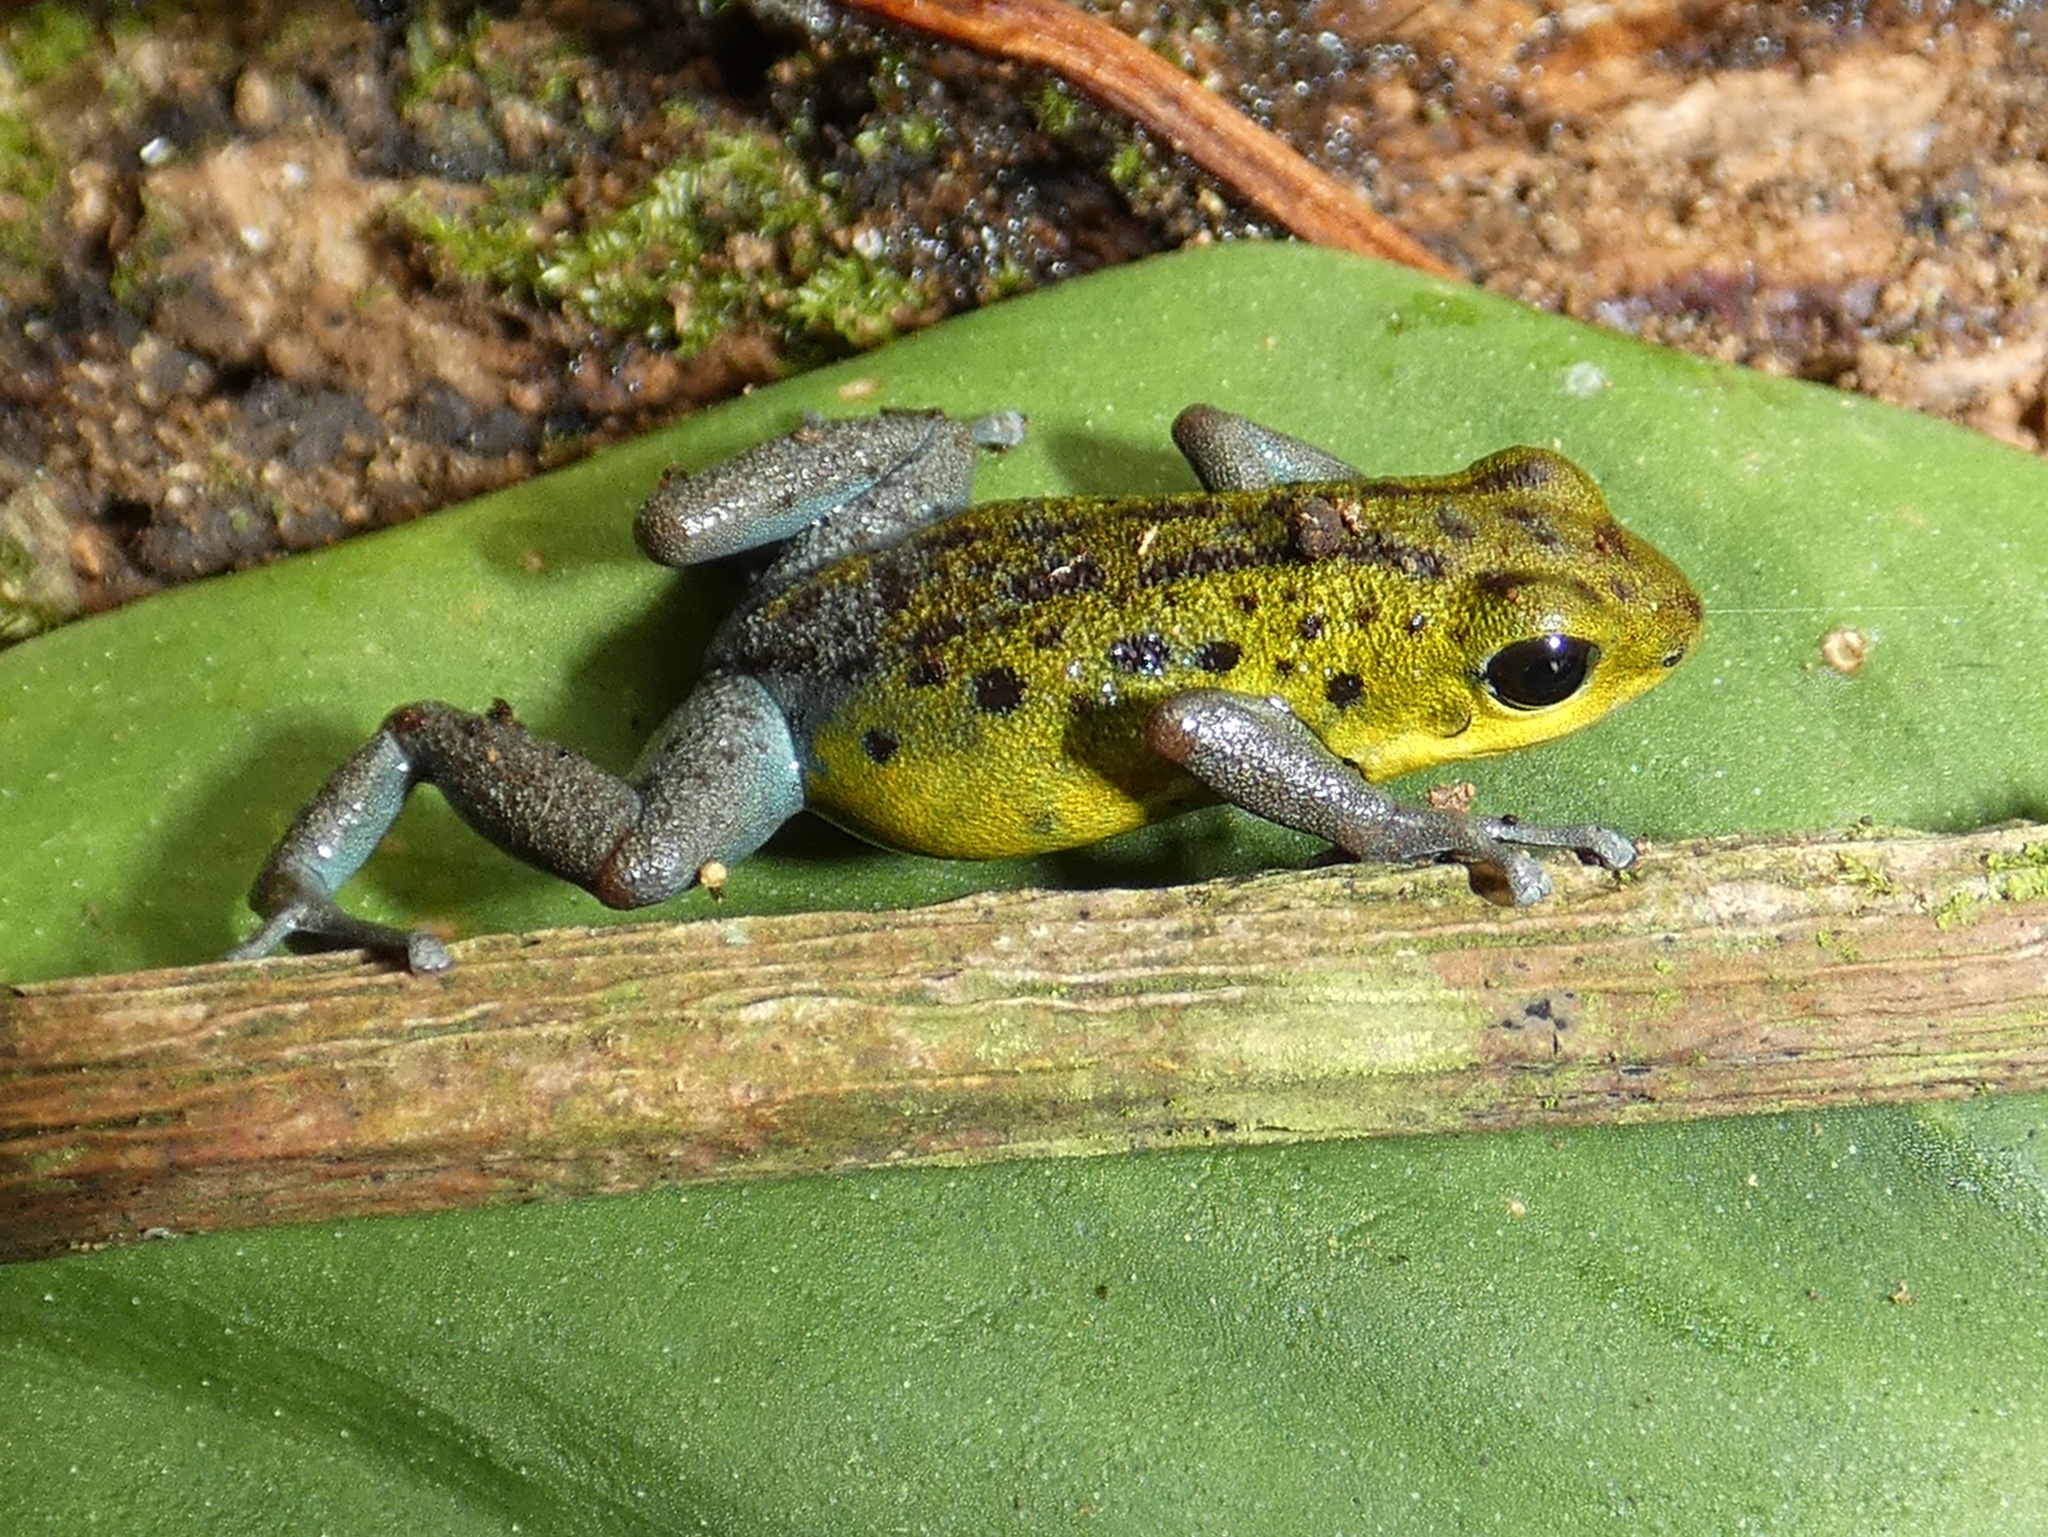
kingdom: Animalia
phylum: Chordata
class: Amphibia
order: Anura
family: Dendrobatidae
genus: Oophaga
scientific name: Oophaga pumilio
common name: Flaming poison frog
